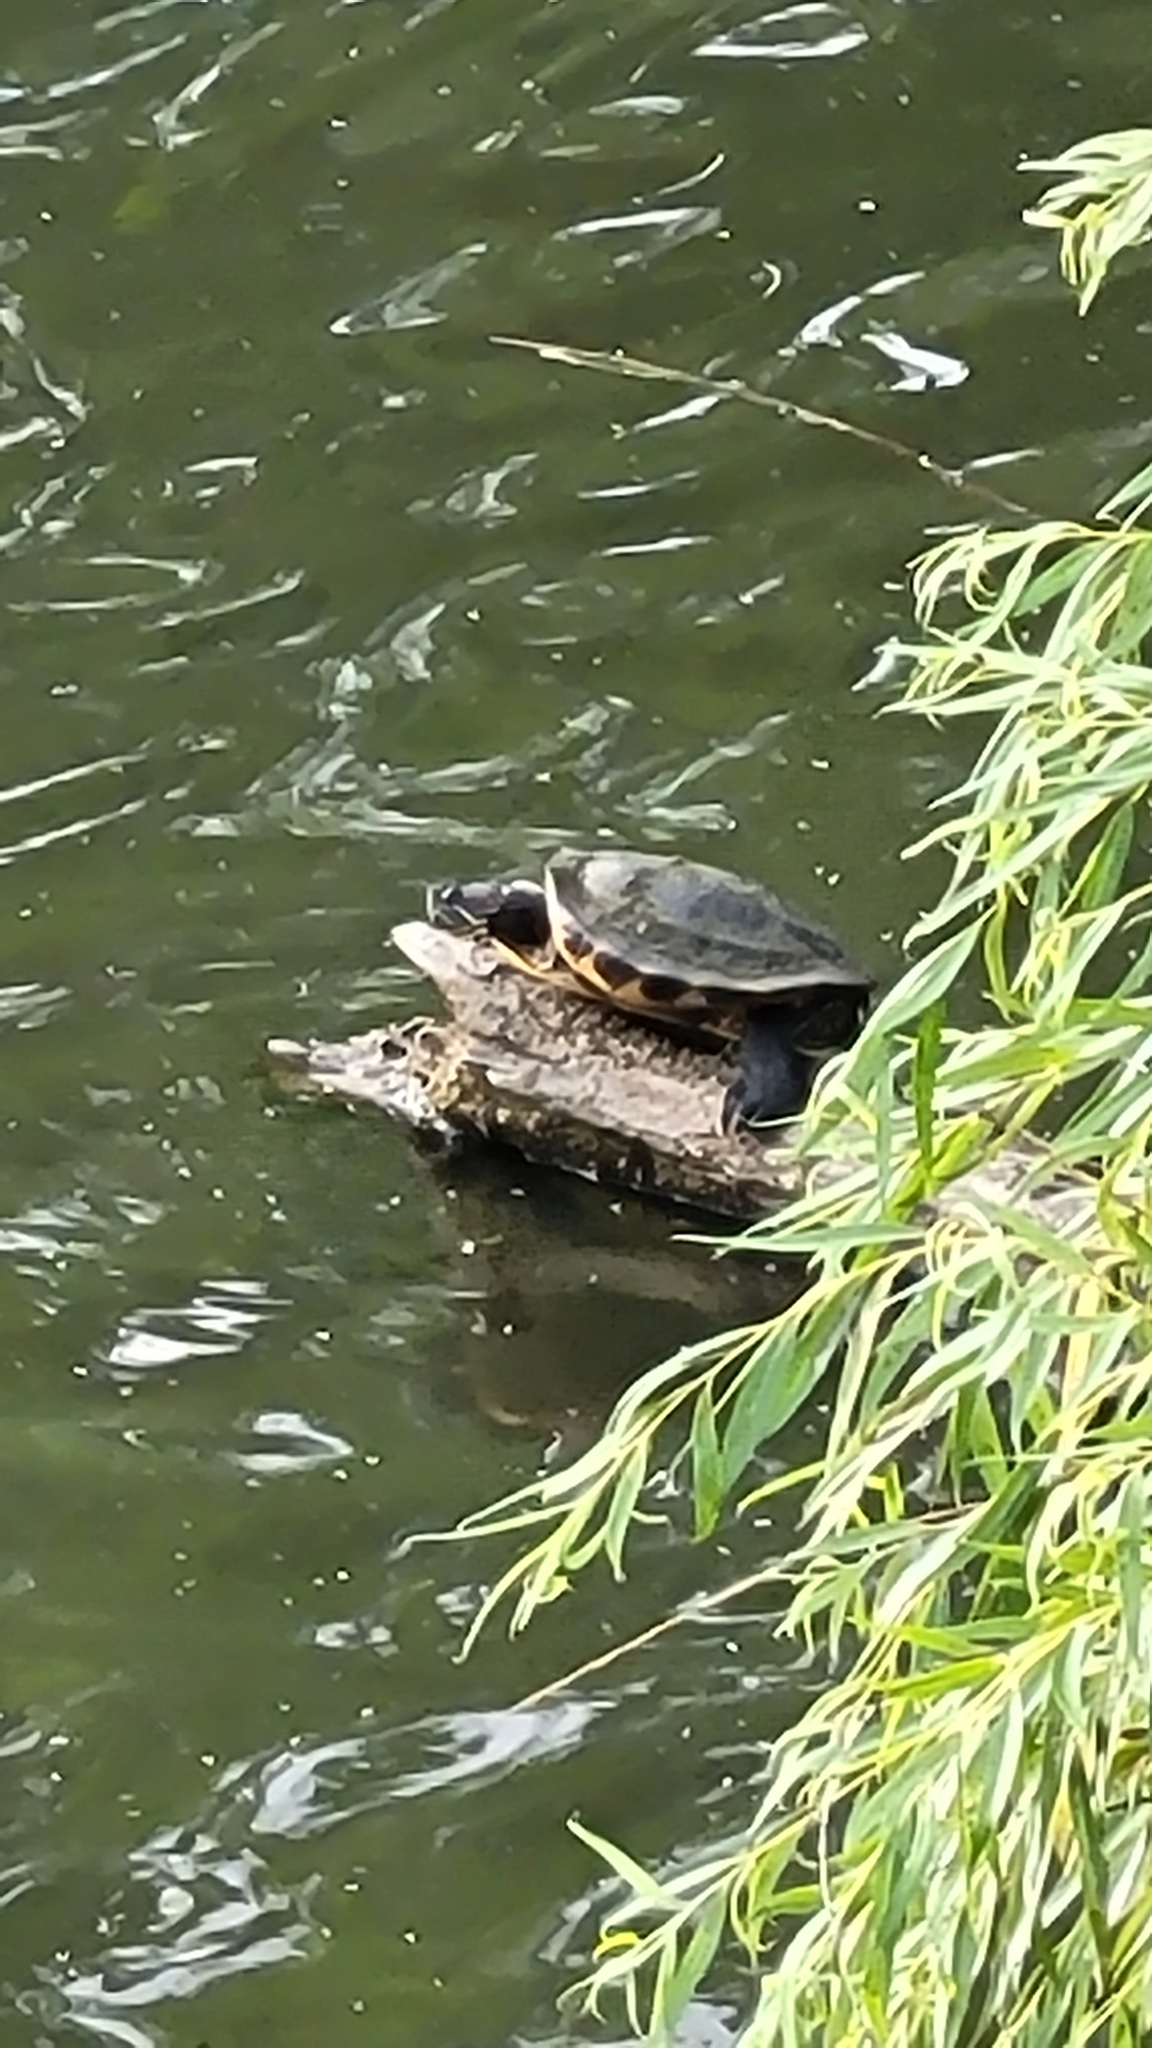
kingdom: Animalia
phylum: Chordata
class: Testudines
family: Emydidae
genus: Trachemys
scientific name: Trachemys scripta
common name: Slider
